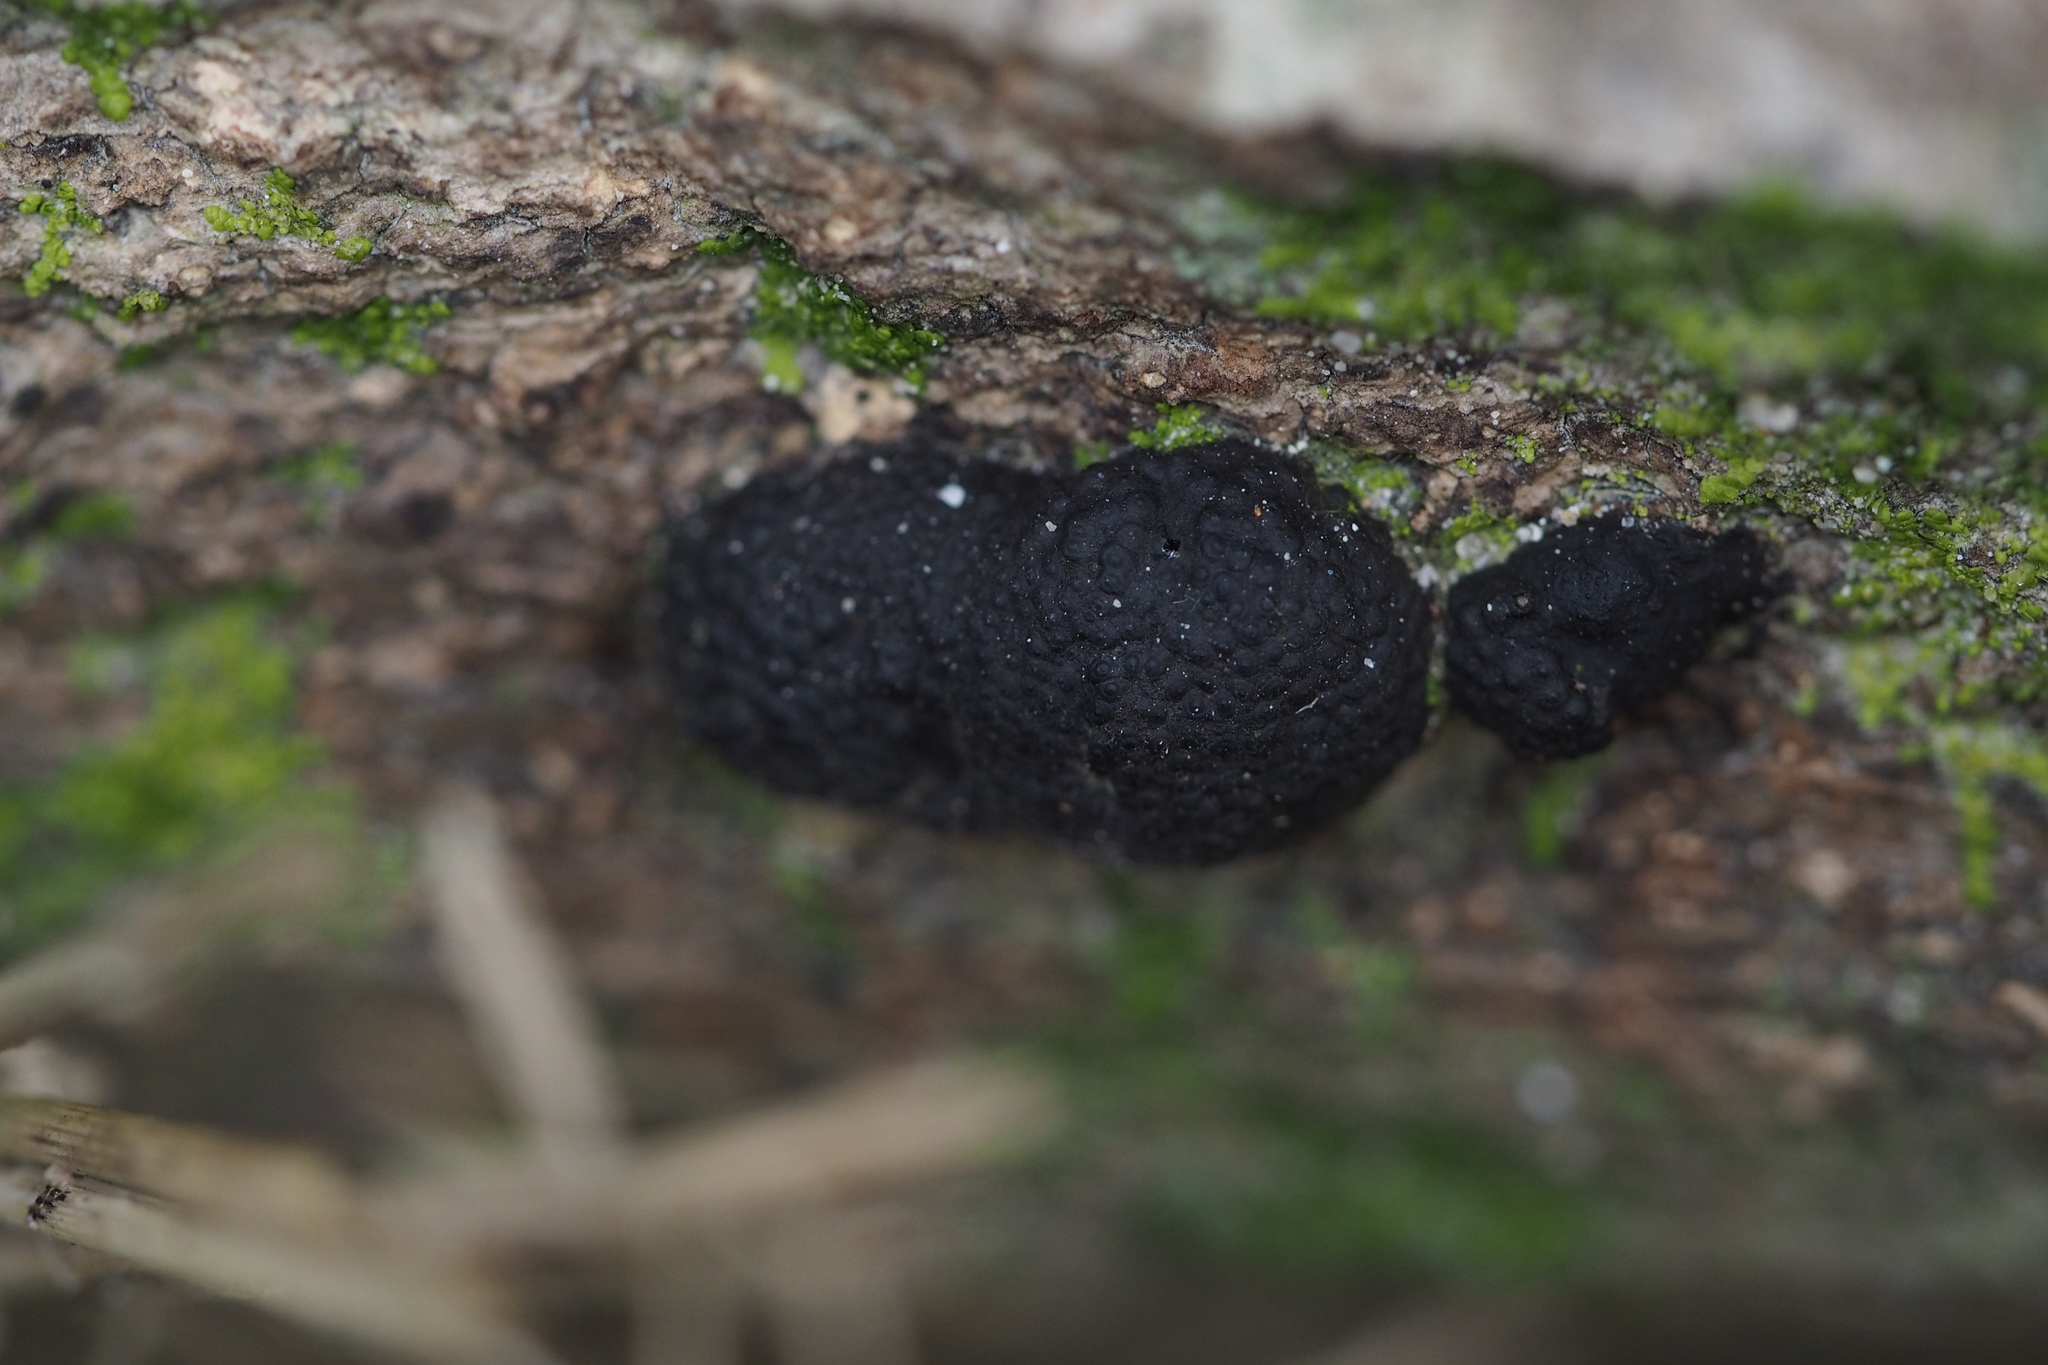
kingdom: Fungi
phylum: Ascomycota
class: Sordariomycetes
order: Xylariales
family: Hypoxylaceae
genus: Annulohypoxylon
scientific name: Annulohypoxylon truncatum
